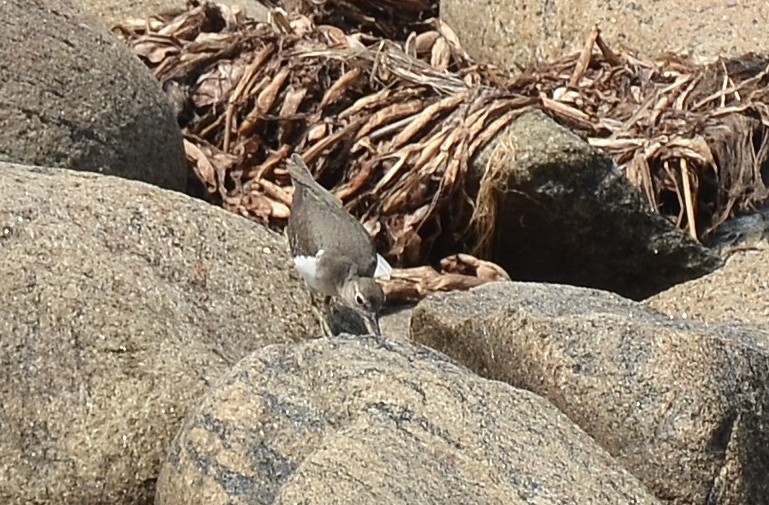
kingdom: Animalia
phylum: Chordata
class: Aves
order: Charadriiformes
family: Scolopacidae
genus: Actitis
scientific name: Actitis hypoleucos
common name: Common sandpiper
